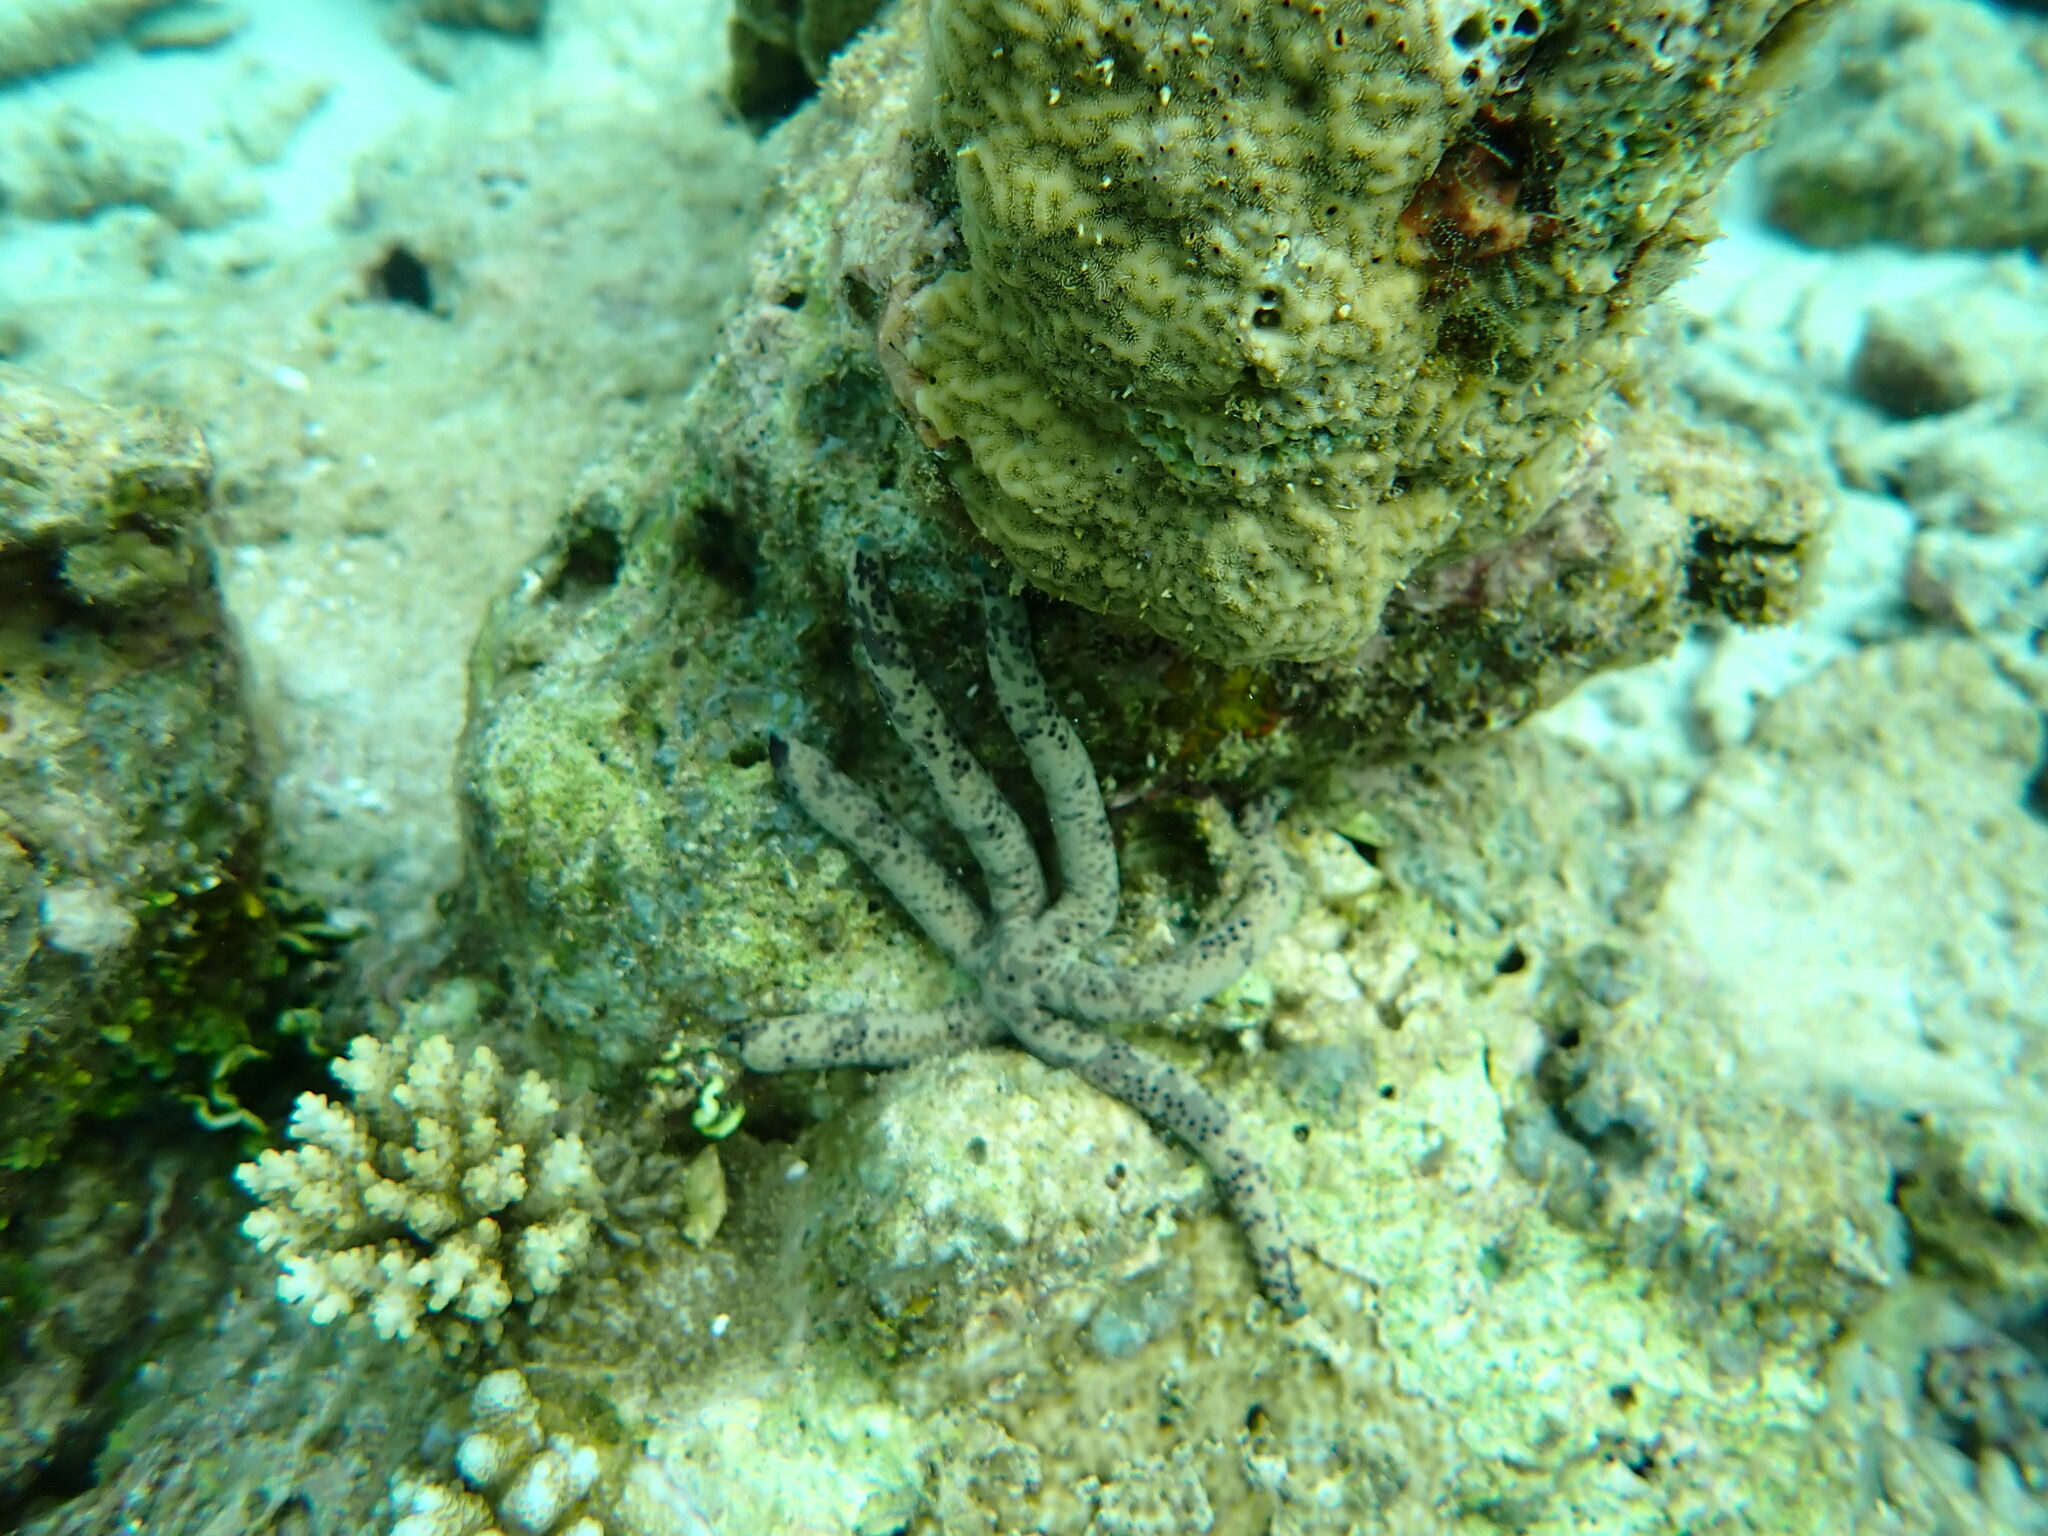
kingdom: Animalia
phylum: Echinodermata
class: Asteroidea
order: Valvatida
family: Ophidiasteridae
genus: Linckia
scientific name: Linckia multifora
